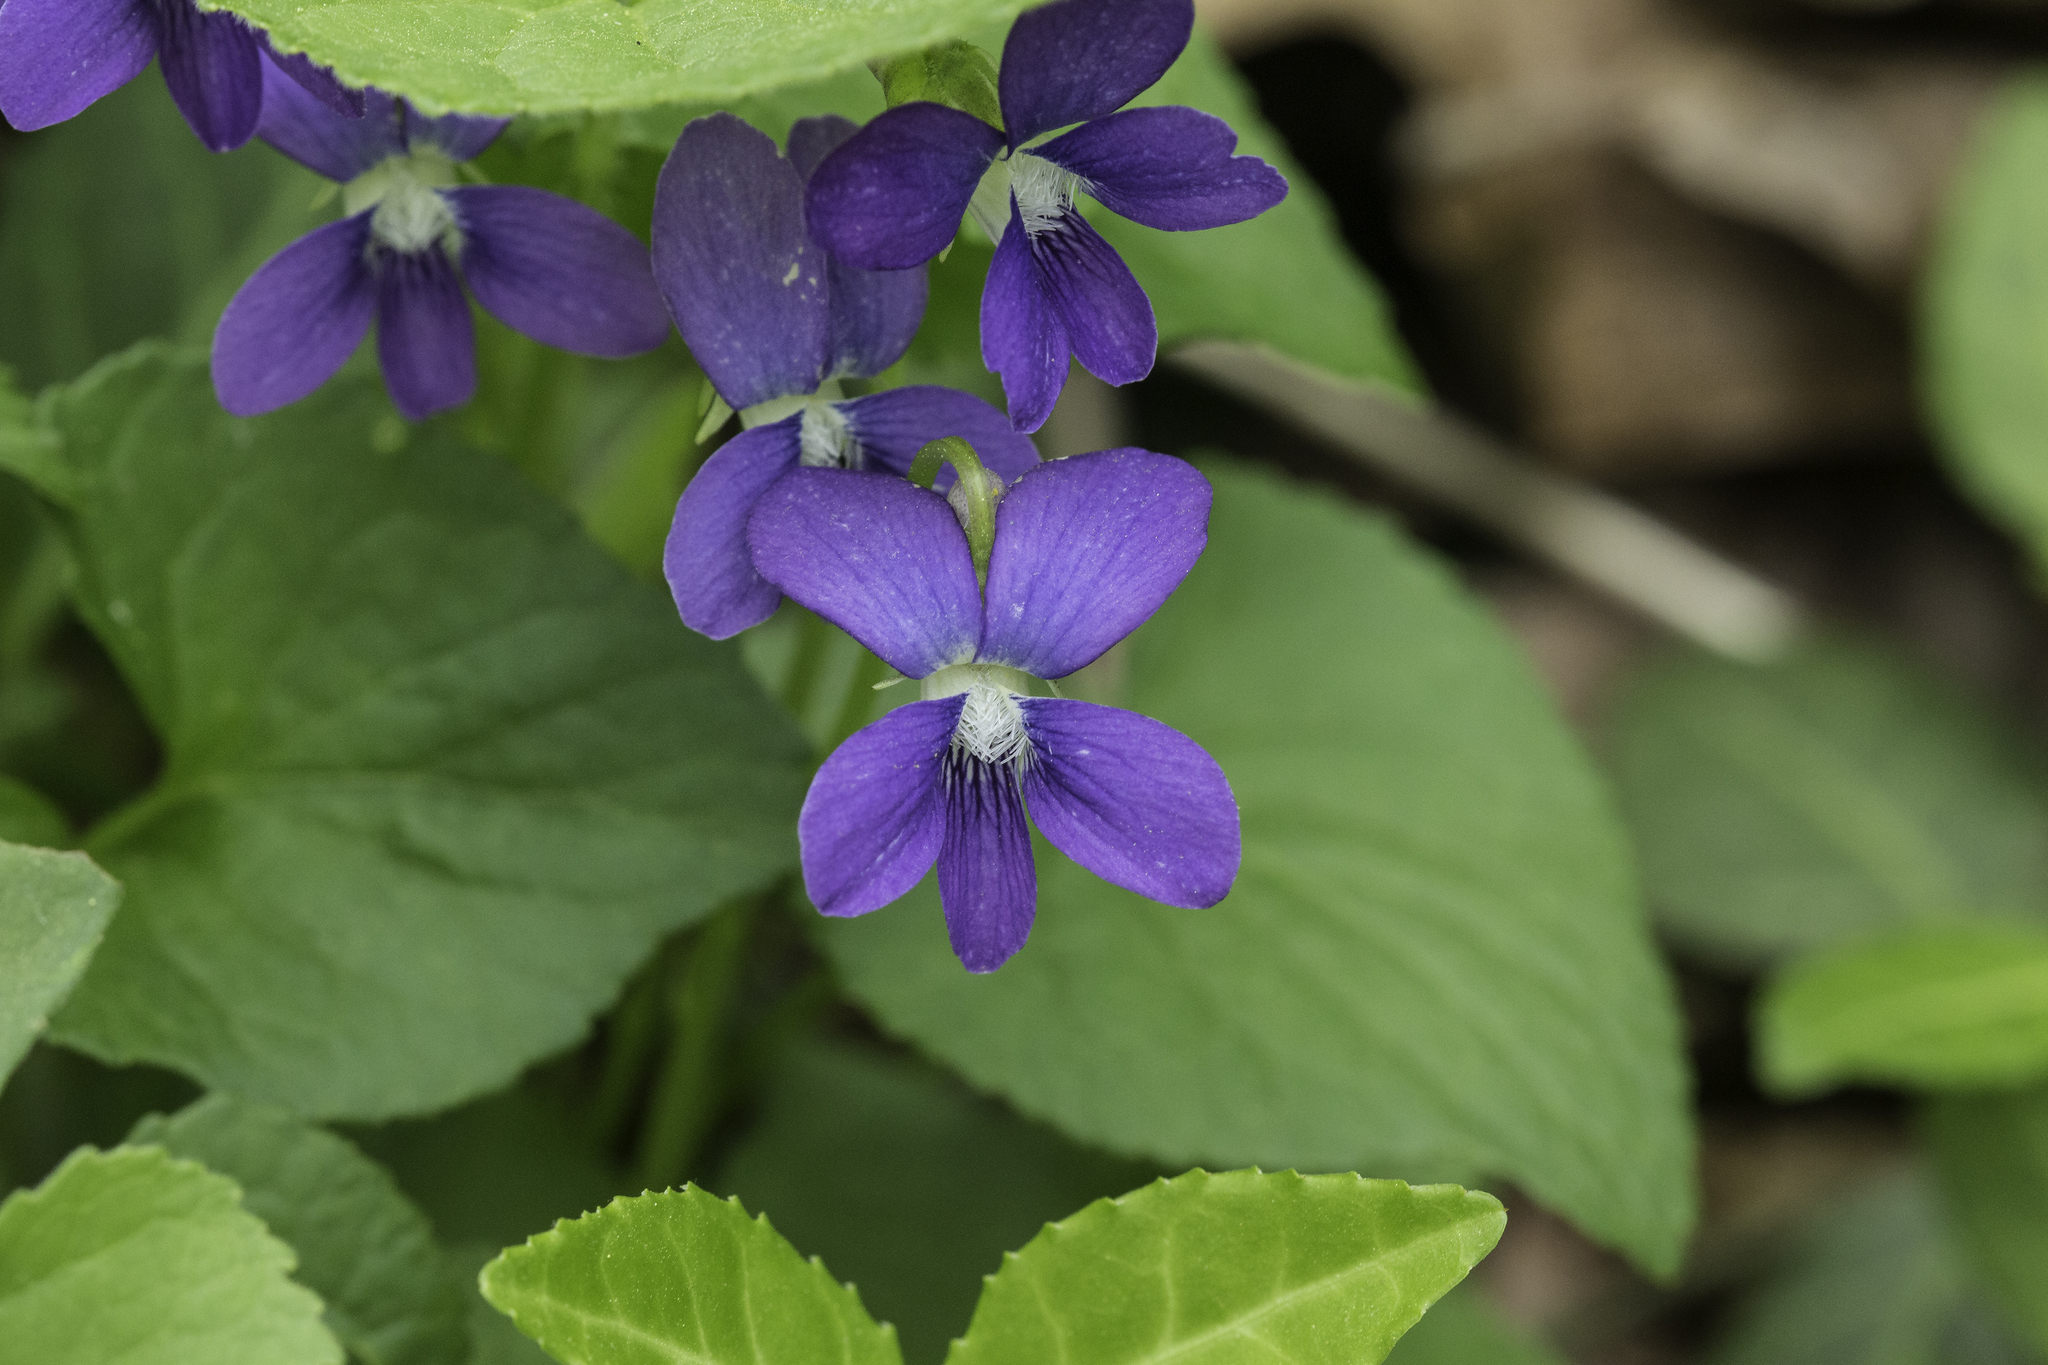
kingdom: Plantae
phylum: Tracheophyta
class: Magnoliopsida
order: Malpighiales
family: Violaceae
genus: Viola
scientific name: Viola sororia
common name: Dooryard violet
